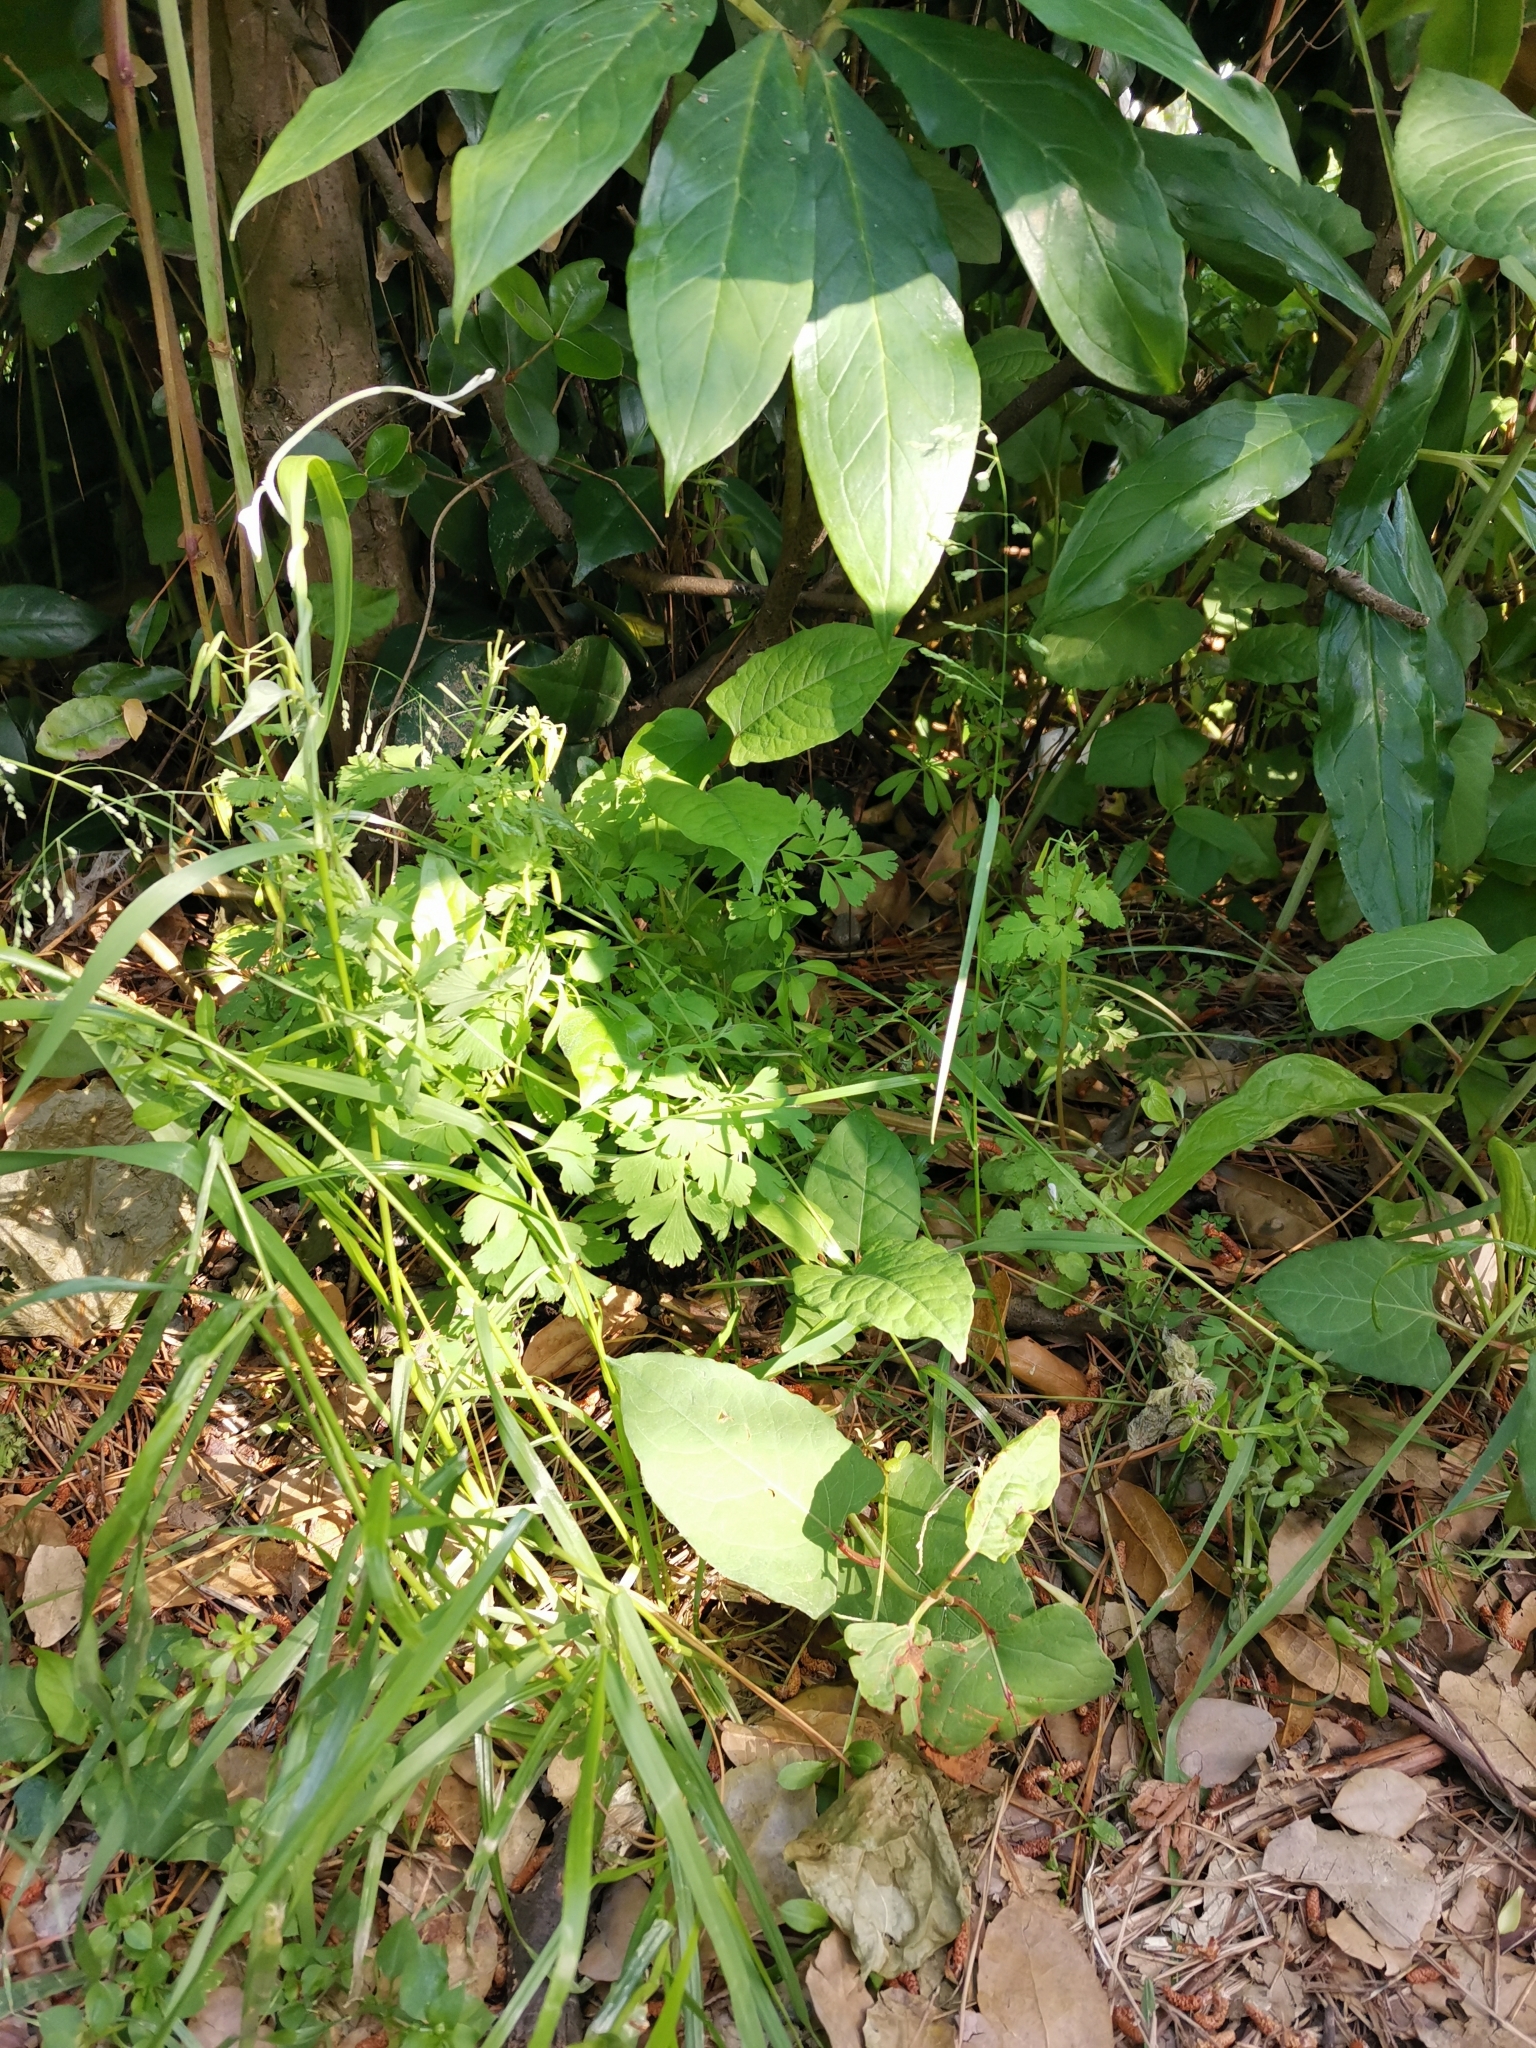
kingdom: Plantae
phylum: Tracheophyta
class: Liliopsida
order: Poales
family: Poaceae
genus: Poa
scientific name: Poa acroleuca
